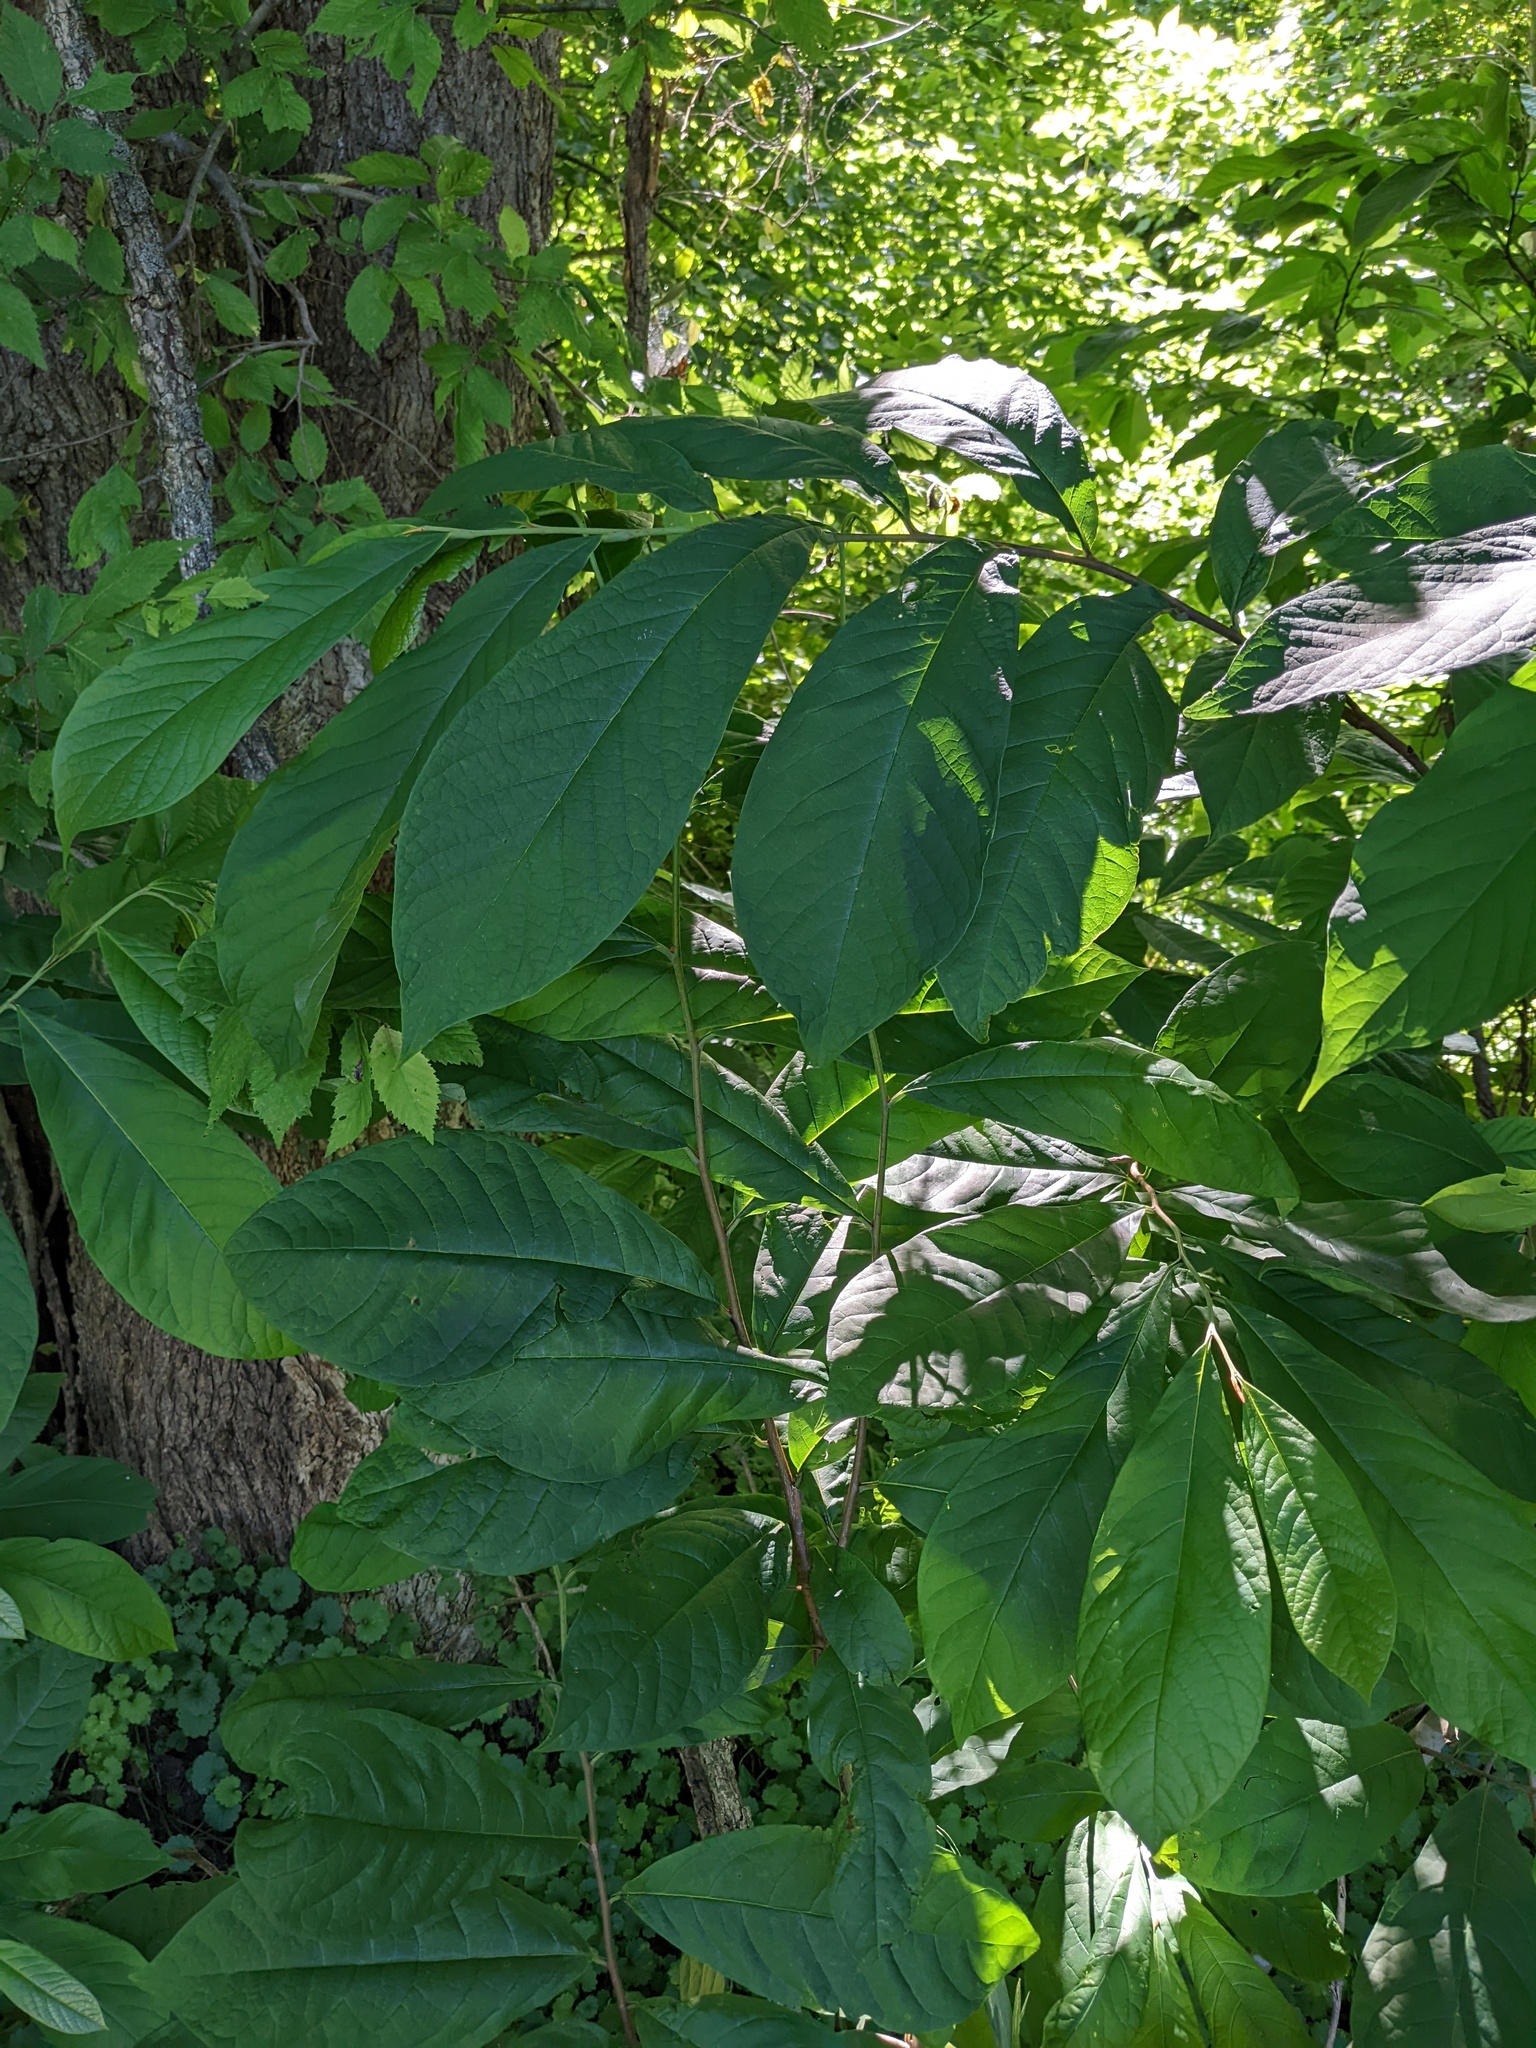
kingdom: Plantae
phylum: Tracheophyta
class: Magnoliopsida
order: Magnoliales
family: Annonaceae
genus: Asimina
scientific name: Asimina triloba
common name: Dog-banana
